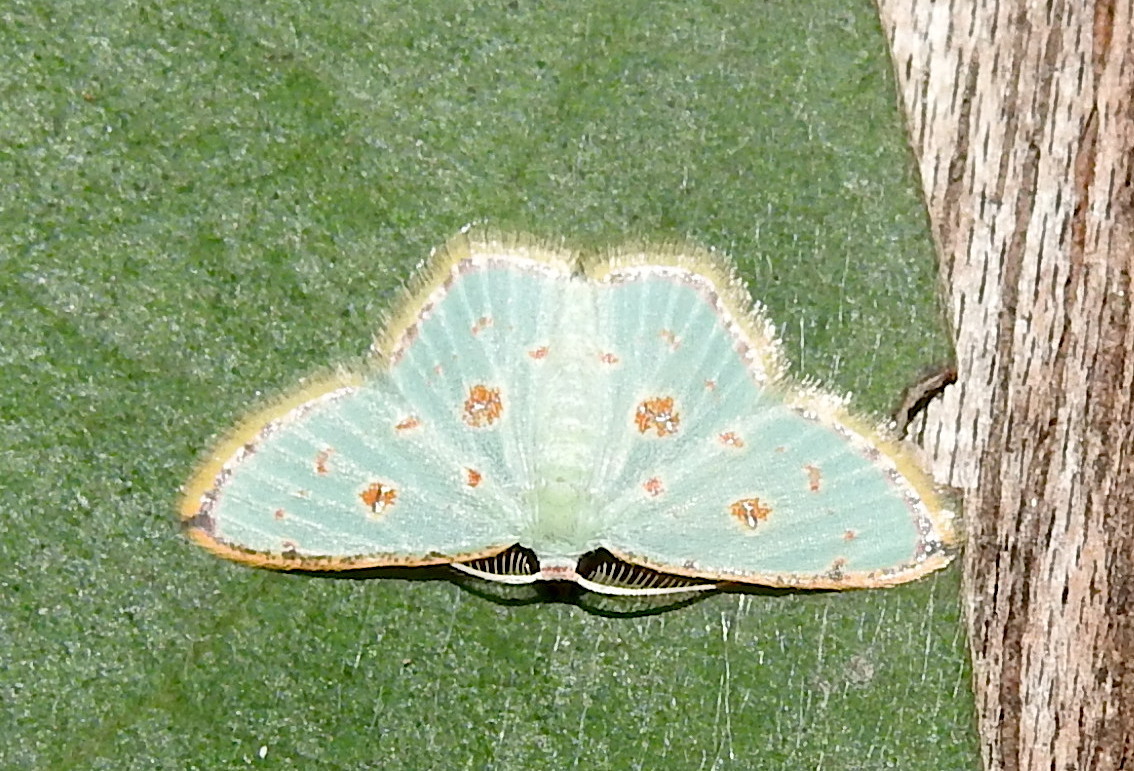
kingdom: Animalia
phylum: Arthropoda
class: Insecta
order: Lepidoptera
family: Geometridae
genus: Comostola
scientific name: Comostola laesaria
